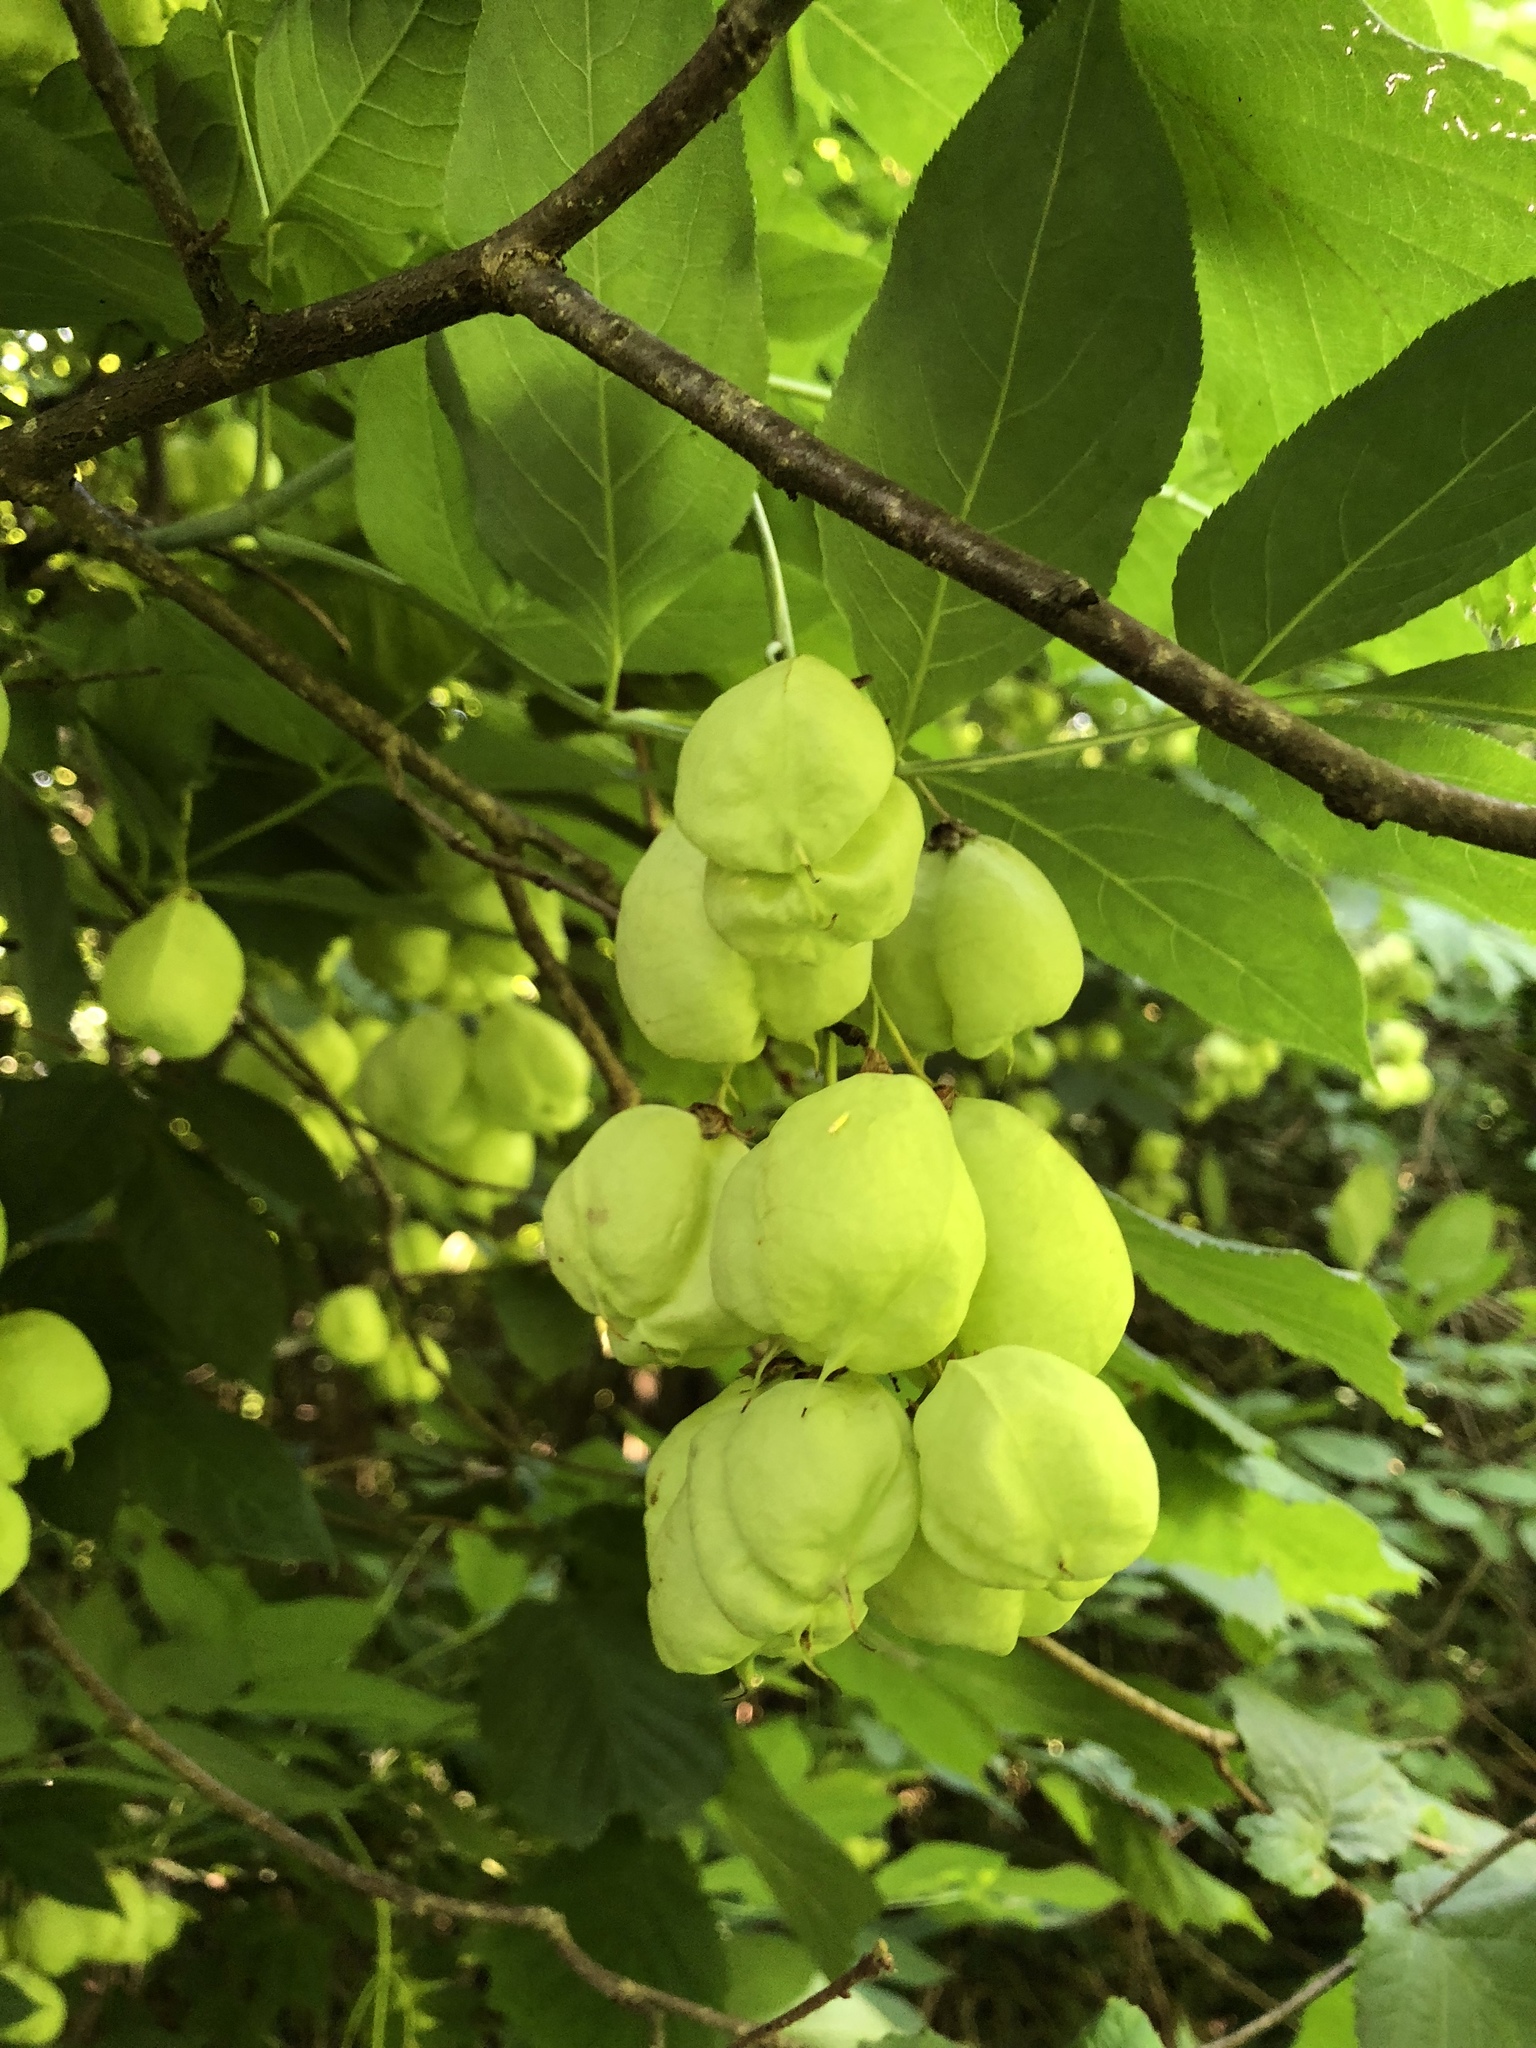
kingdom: Plantae
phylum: Tracheophyta
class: Magnoliopsida
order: Crossosomatales
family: Staphyleaceae
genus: Staphylea
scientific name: Staphylea pinnata
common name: Bladdernut
